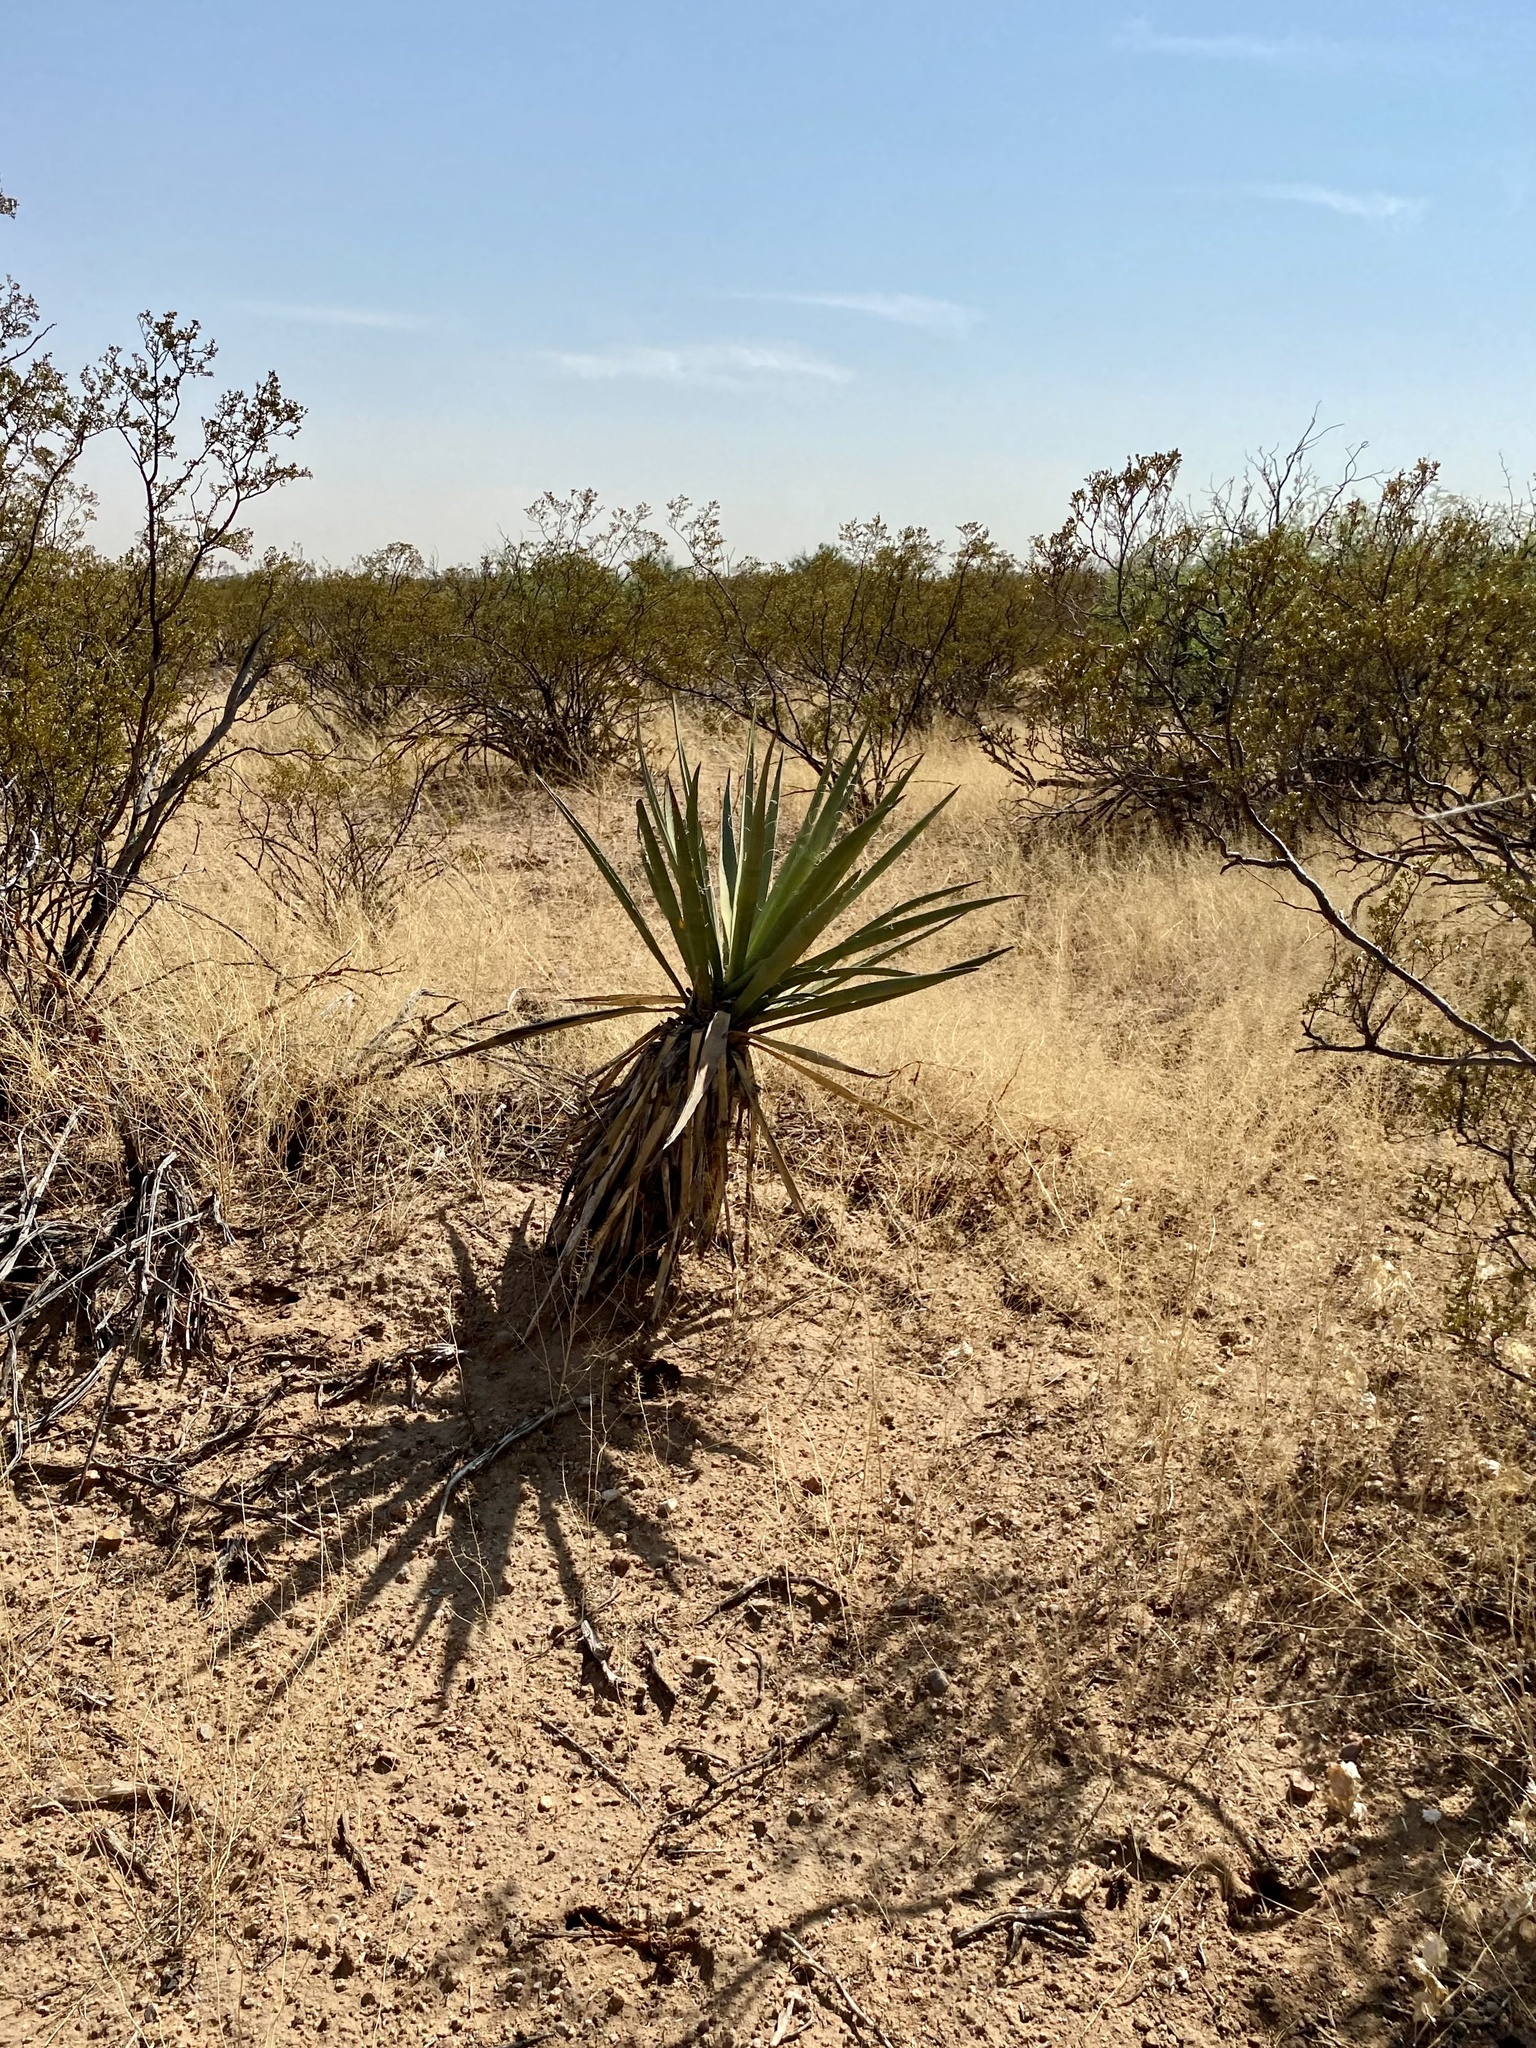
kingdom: Plantae
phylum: Tracheophyta
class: Liliopsida
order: Asparagales
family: Asparagaceae
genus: Yucca
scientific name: Yucca baccata
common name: Banana yucca
